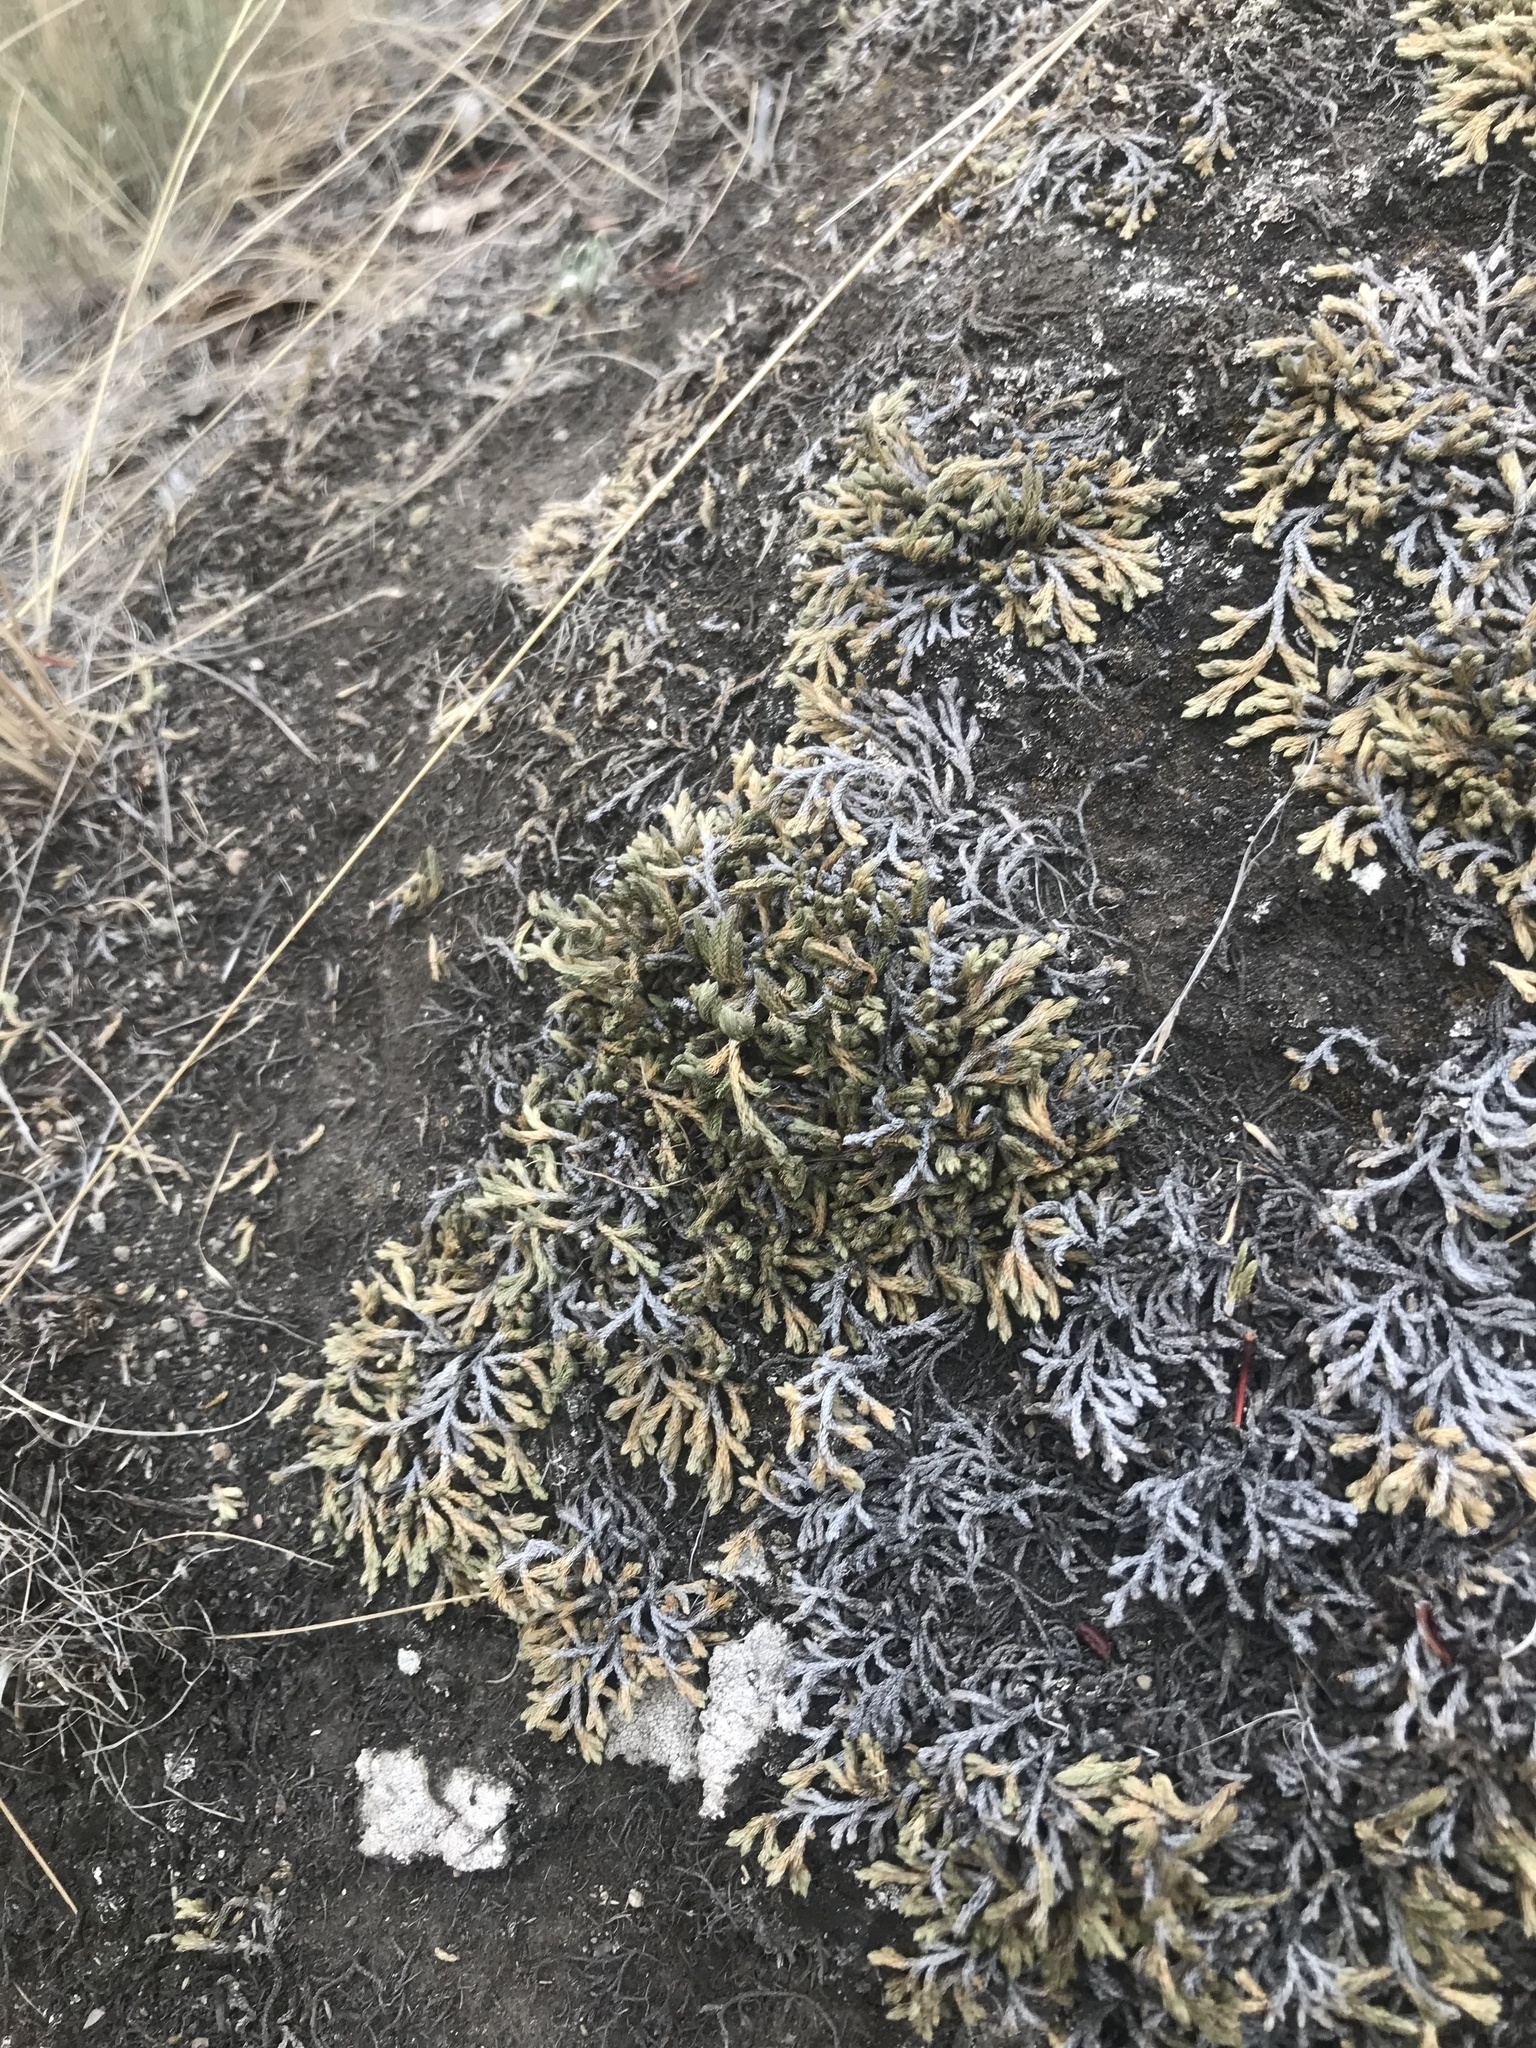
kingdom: Plantae
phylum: Tracheophyta
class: Lycopodiopsida
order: Selaginellales
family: Selaginellaceae
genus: Selaginella
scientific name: Selaginella wallacei
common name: Wallace's selaginella
